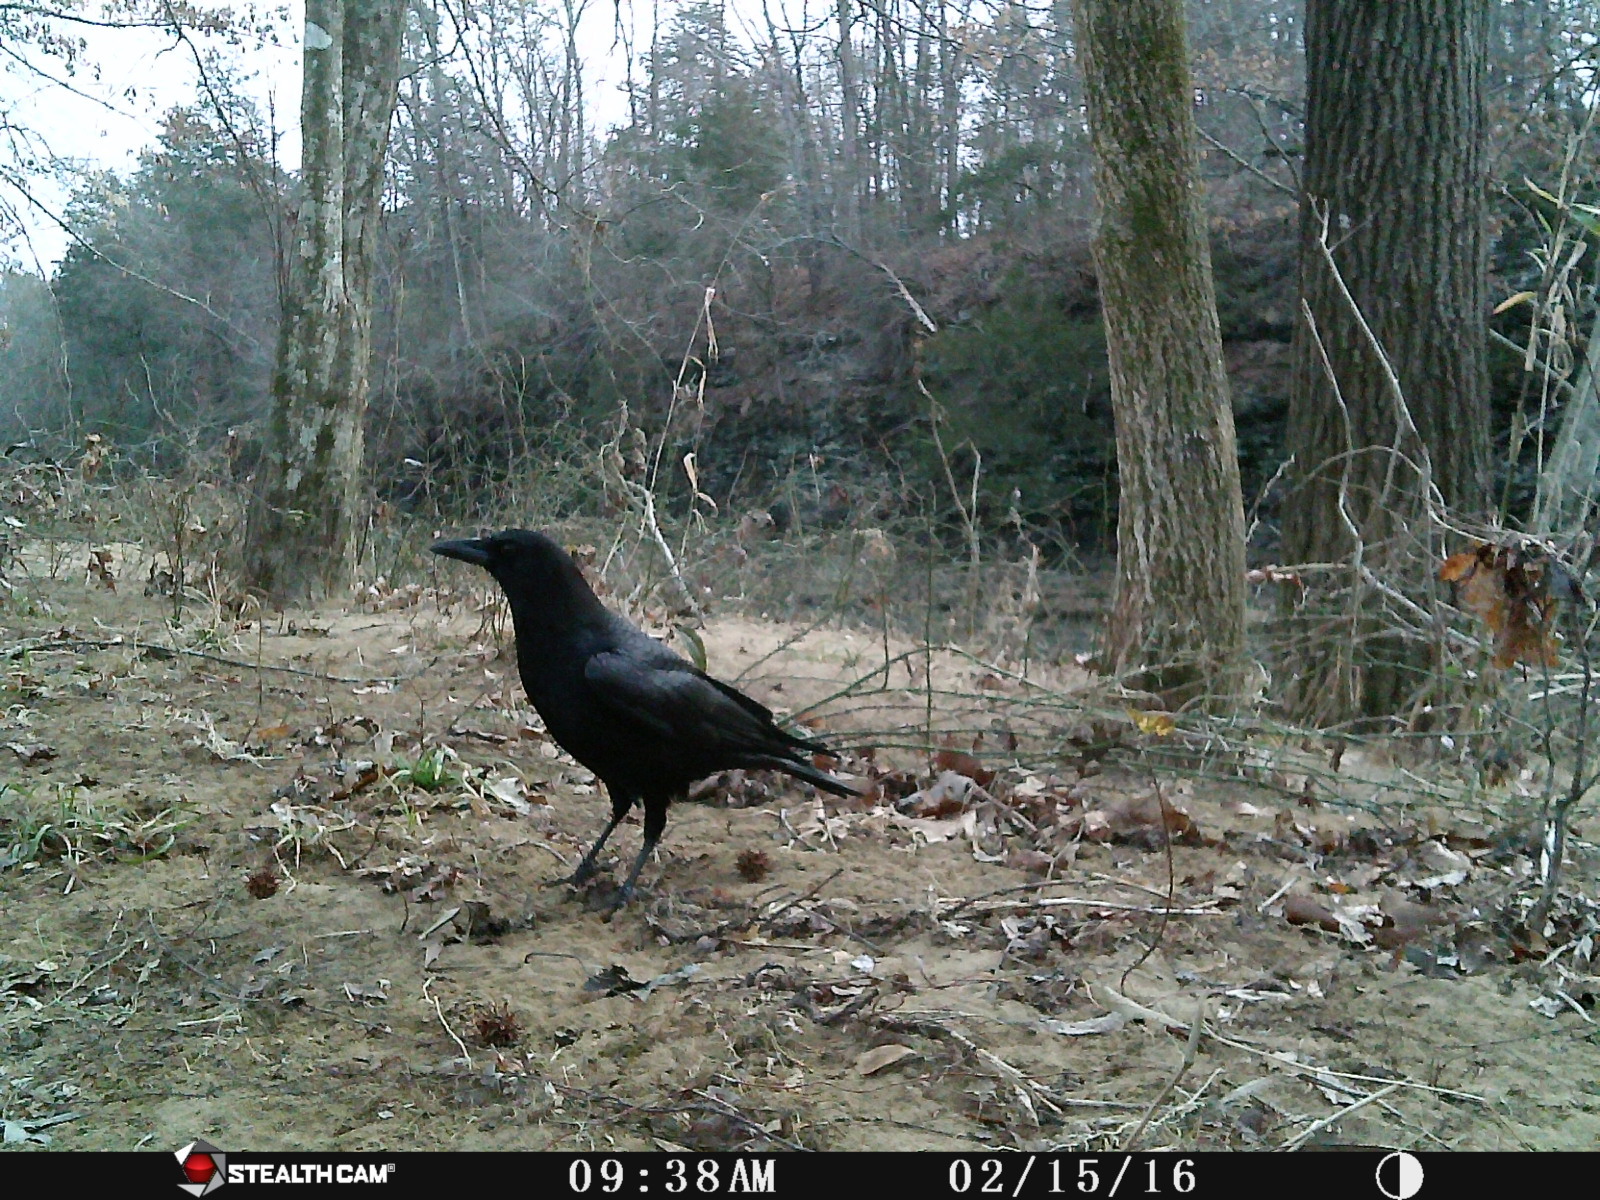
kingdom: Animalia
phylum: Chordata
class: Aves
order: Passeriformes
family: Corvidae
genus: Corvus
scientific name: Corvus brachyrhynchos
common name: American crow
